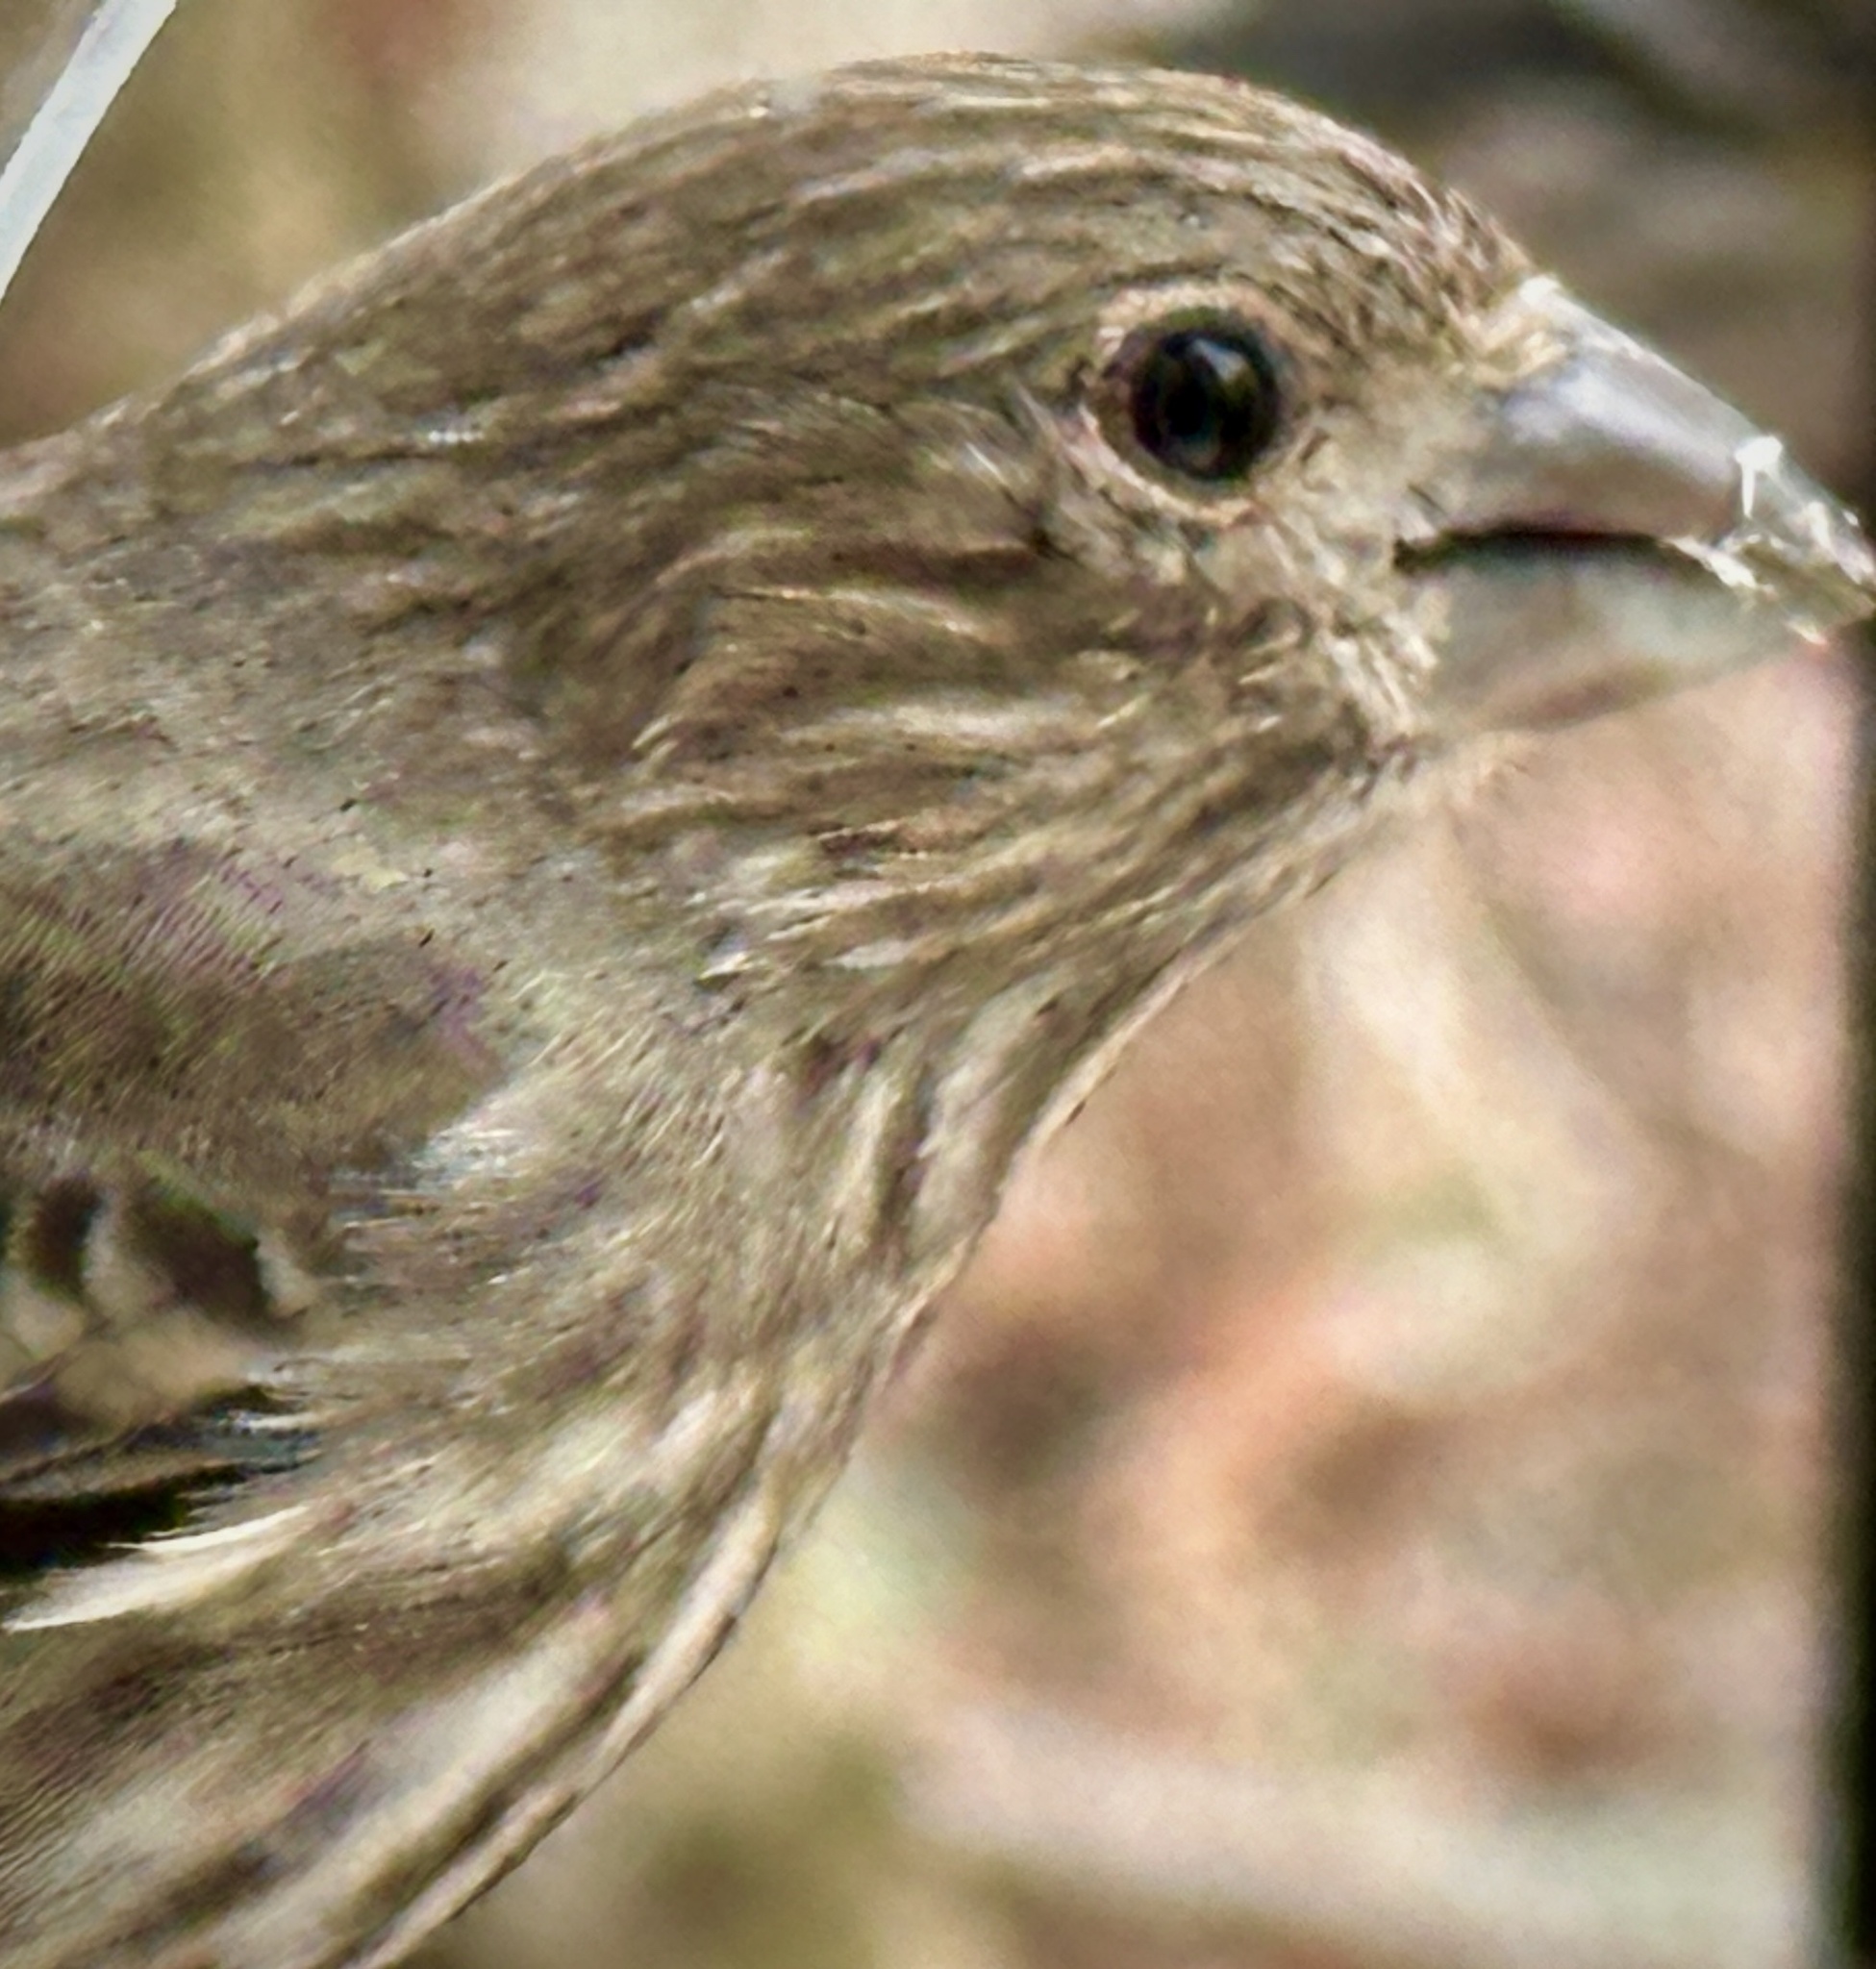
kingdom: Animalia
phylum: Chordata
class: Aves
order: Passeriformes
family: Fringillidae
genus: Haemorhous
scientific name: Haemorhous mexicanus
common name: House finch
